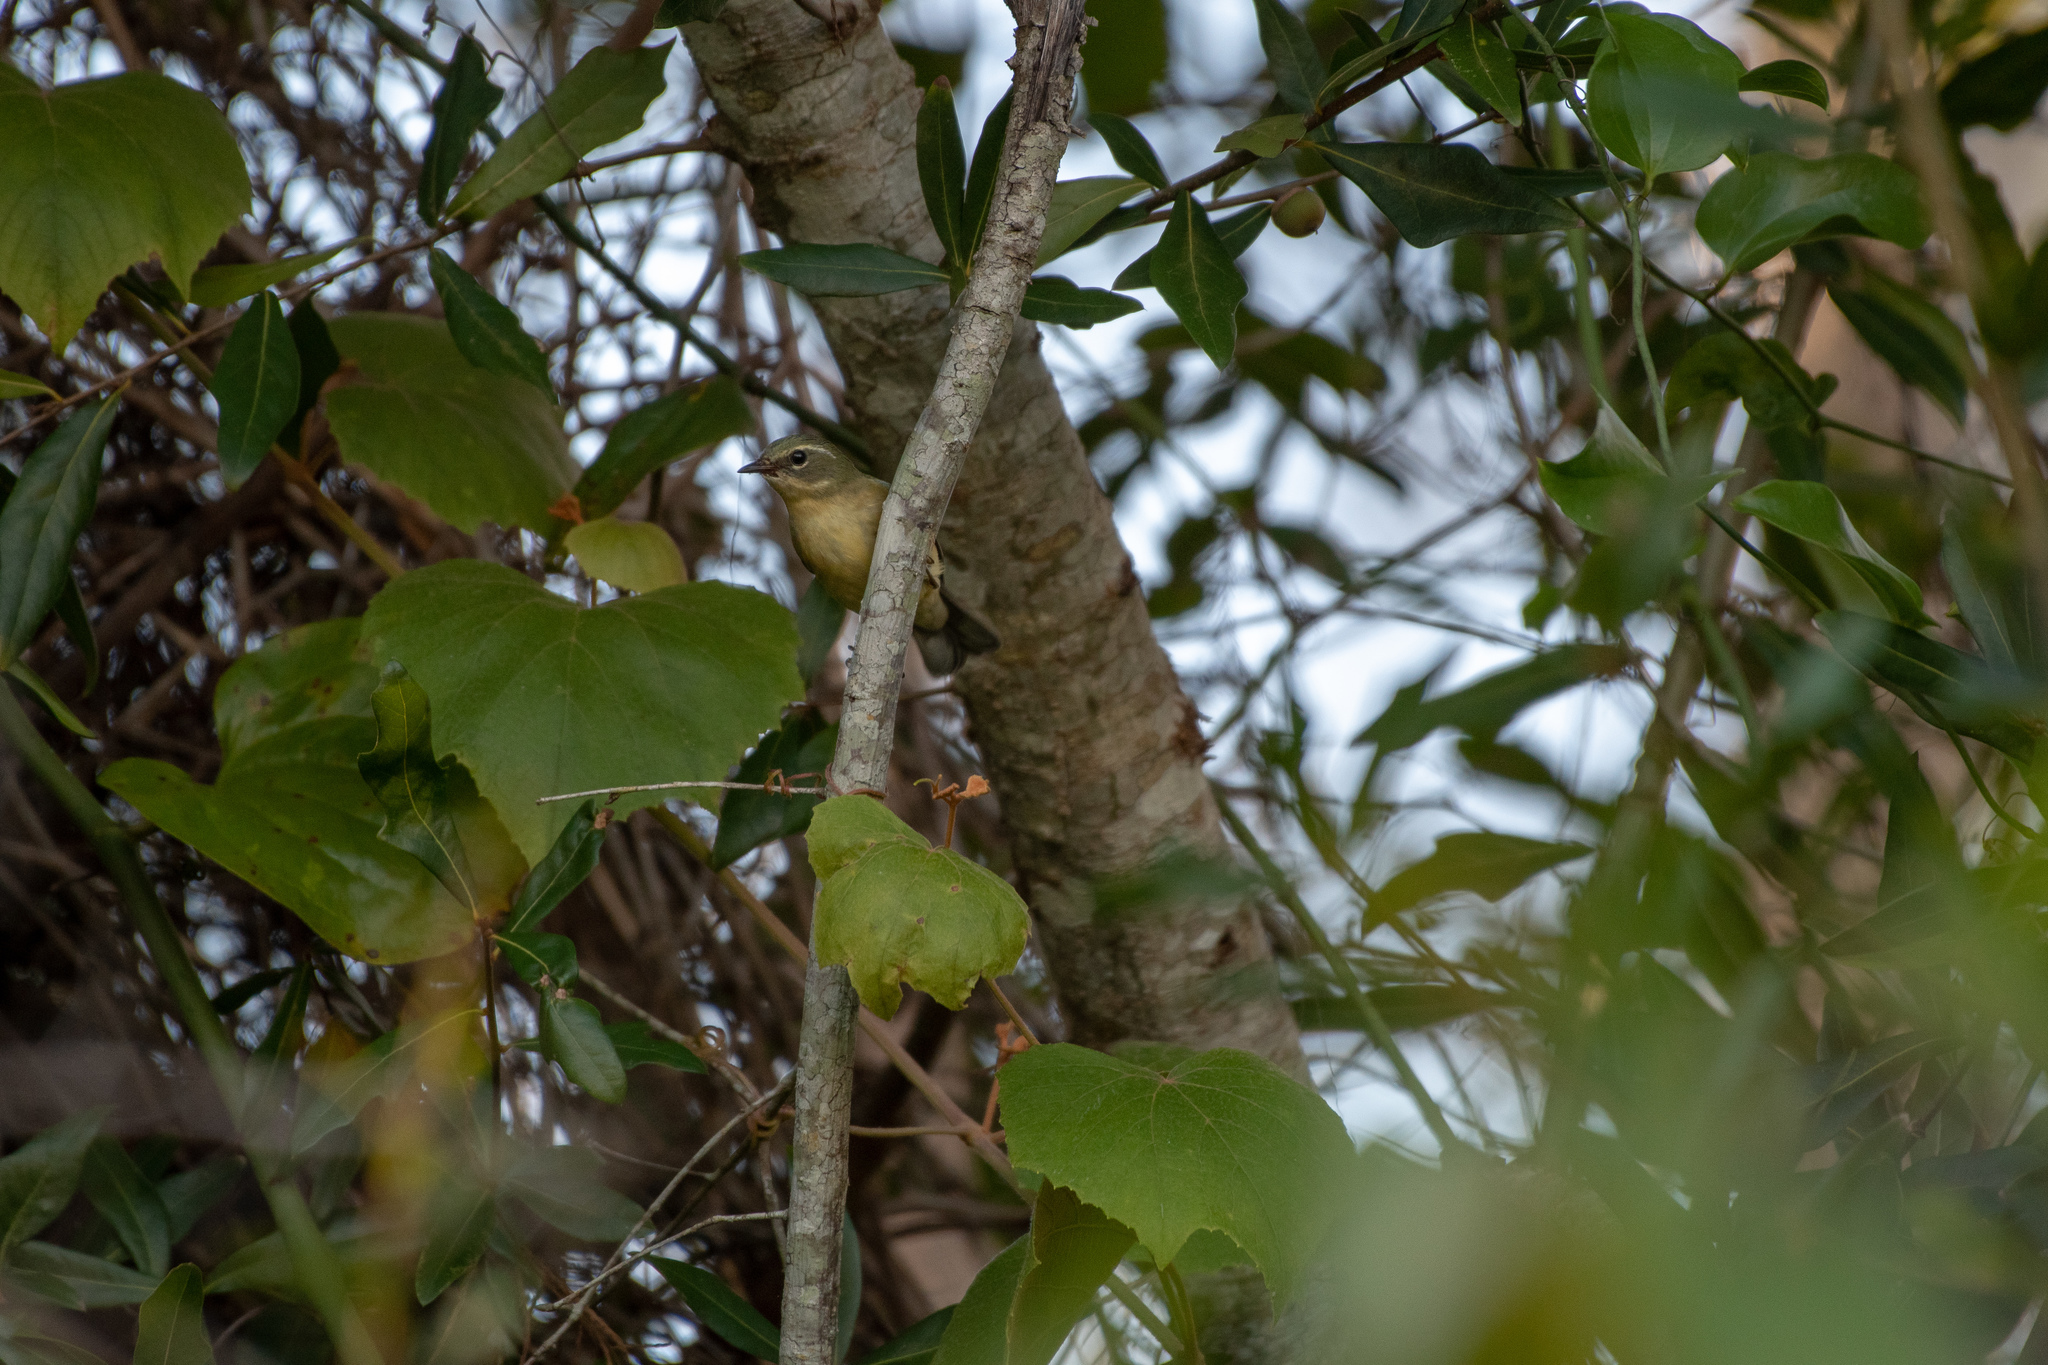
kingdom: Animalia
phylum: Chordata
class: Aves
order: Passeriformes
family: Parulidae
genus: Setophaga
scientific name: Setophaga caerulescens
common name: Black-throated blue warbler
